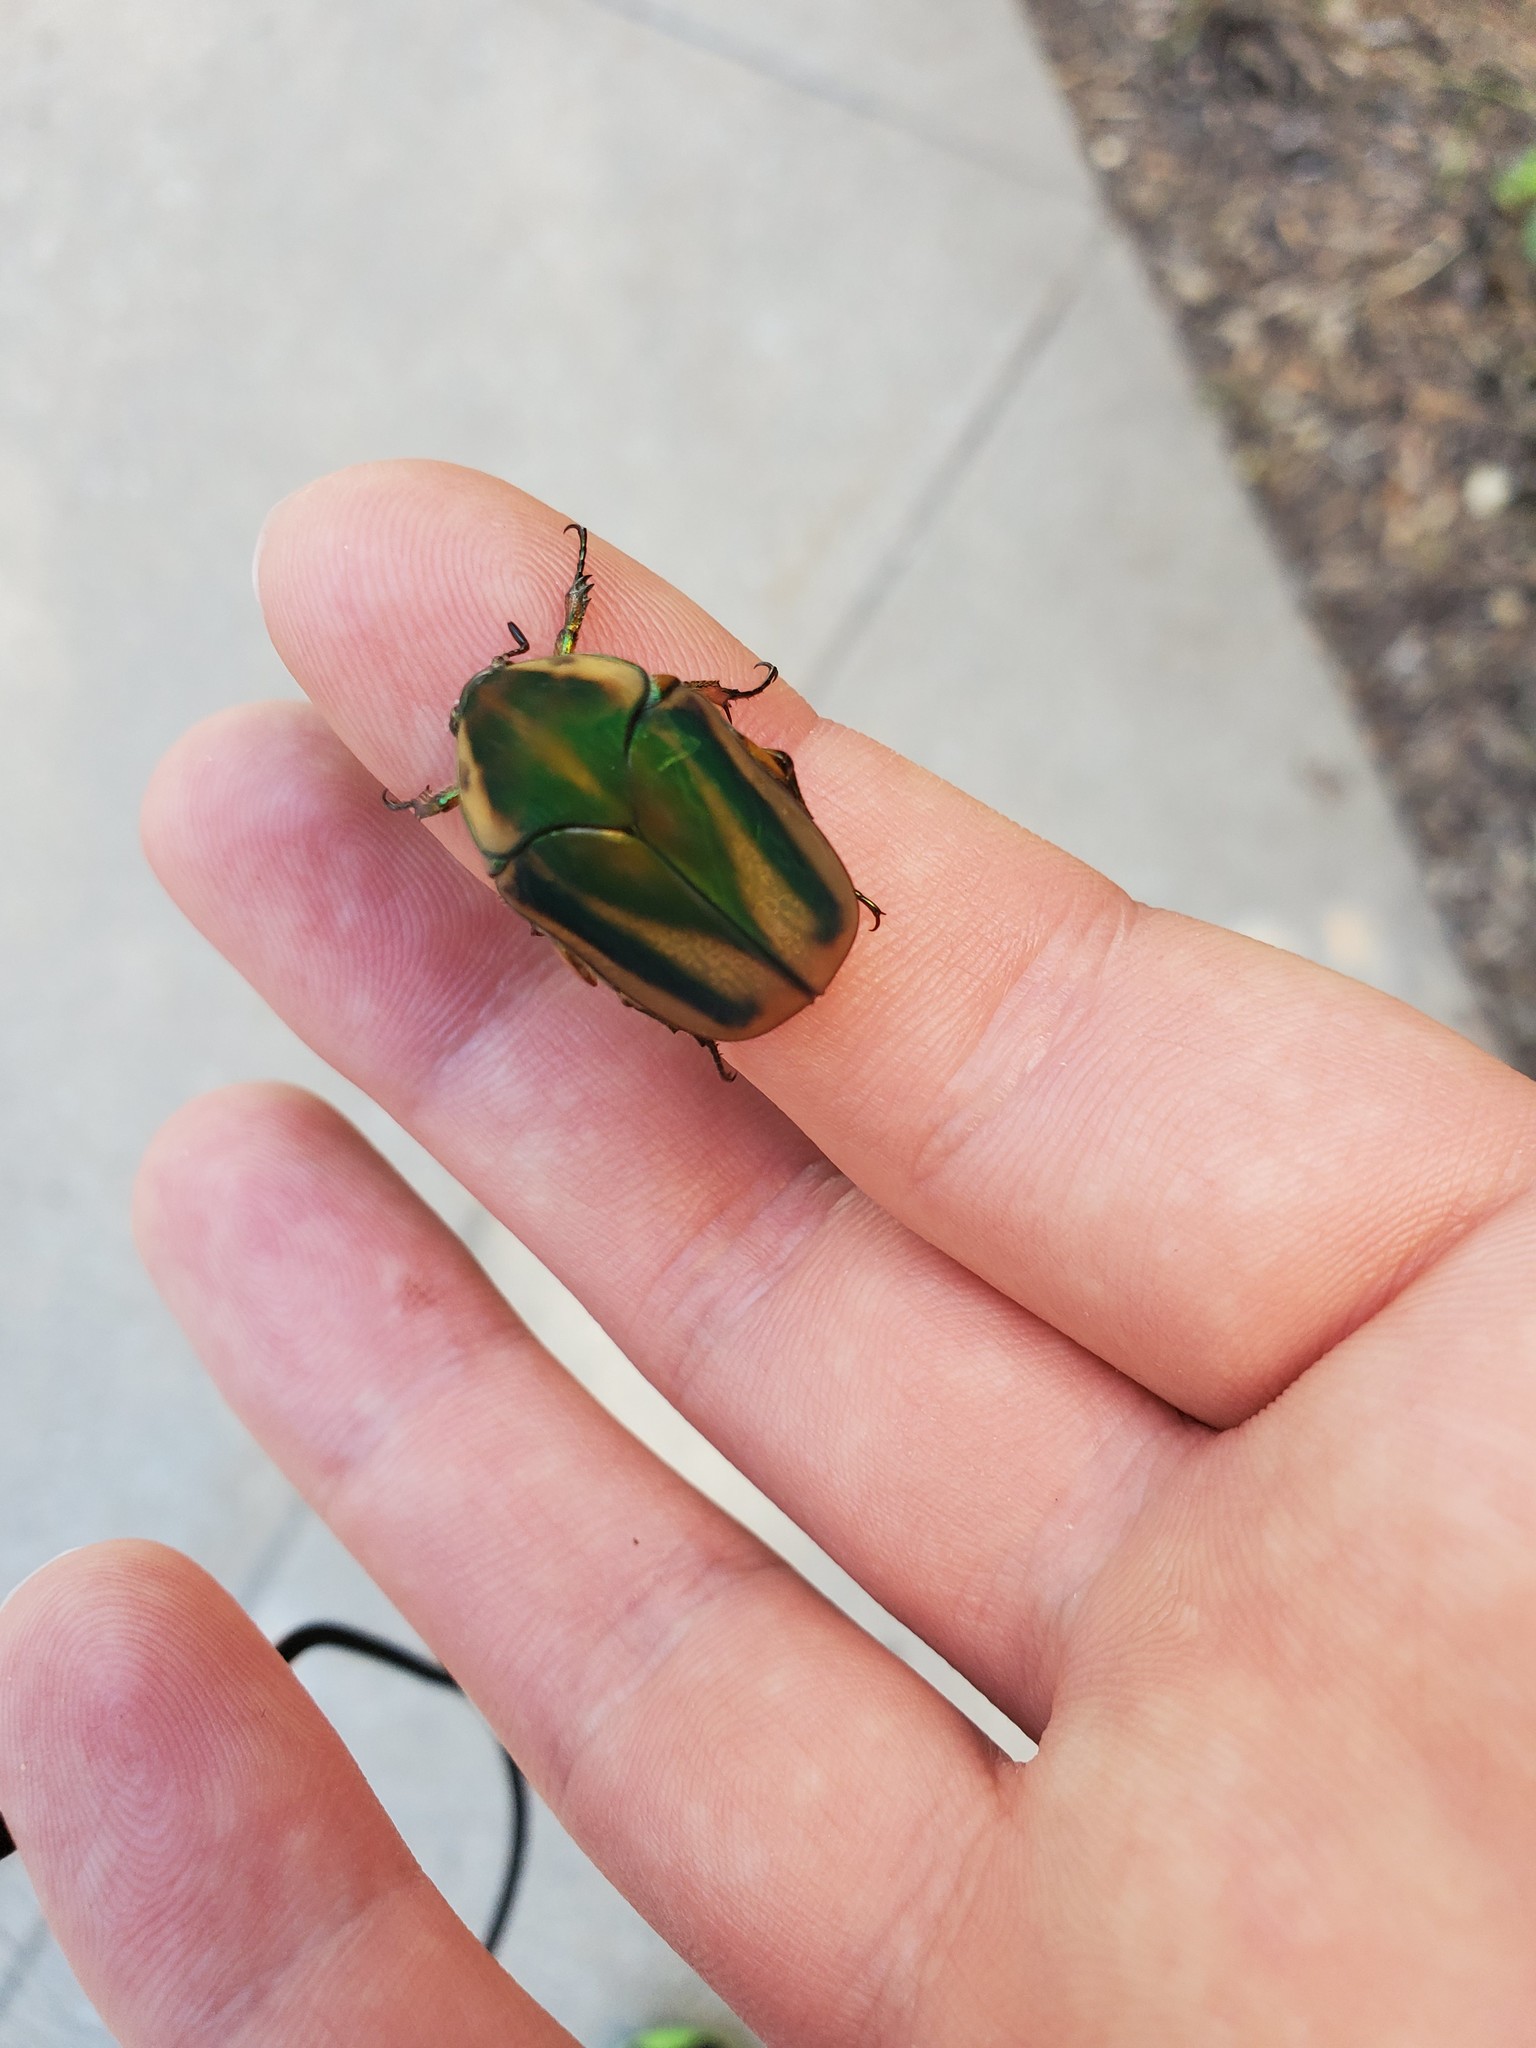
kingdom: Animalia
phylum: Arthropoda
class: Insecta
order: Coleoptera
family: Scarabaeidae
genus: Cotinis
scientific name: Cotinis nitida
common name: Common green june beetle
